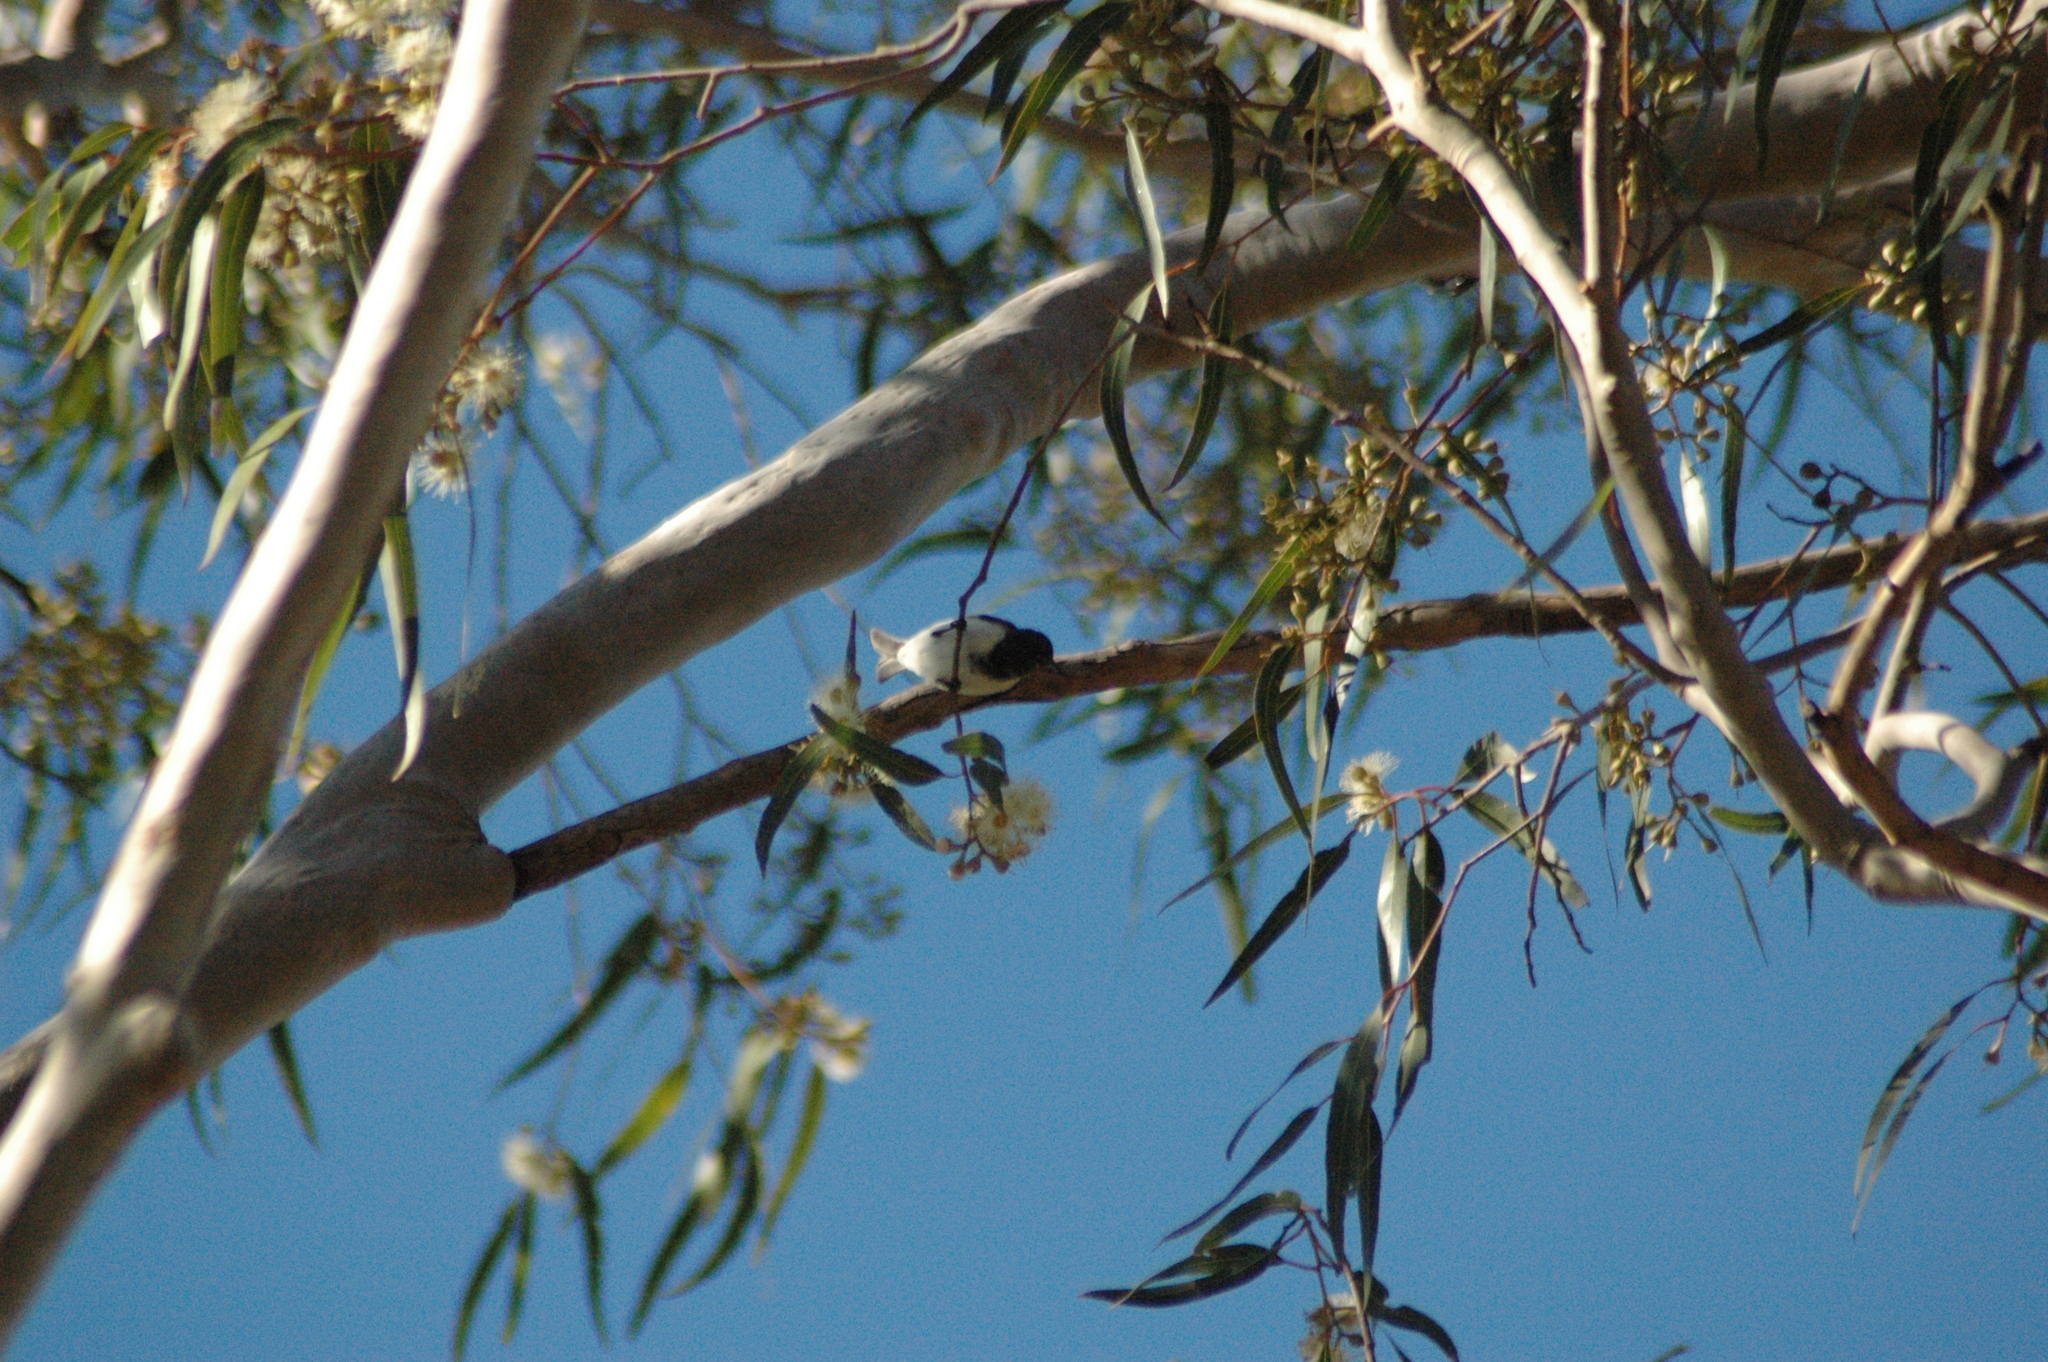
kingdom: Animalia
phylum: Chordata
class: Aves
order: Passeriformes
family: Meliphagidae
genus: Sugomel
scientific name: Sugomel niger
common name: Black honeyeater
